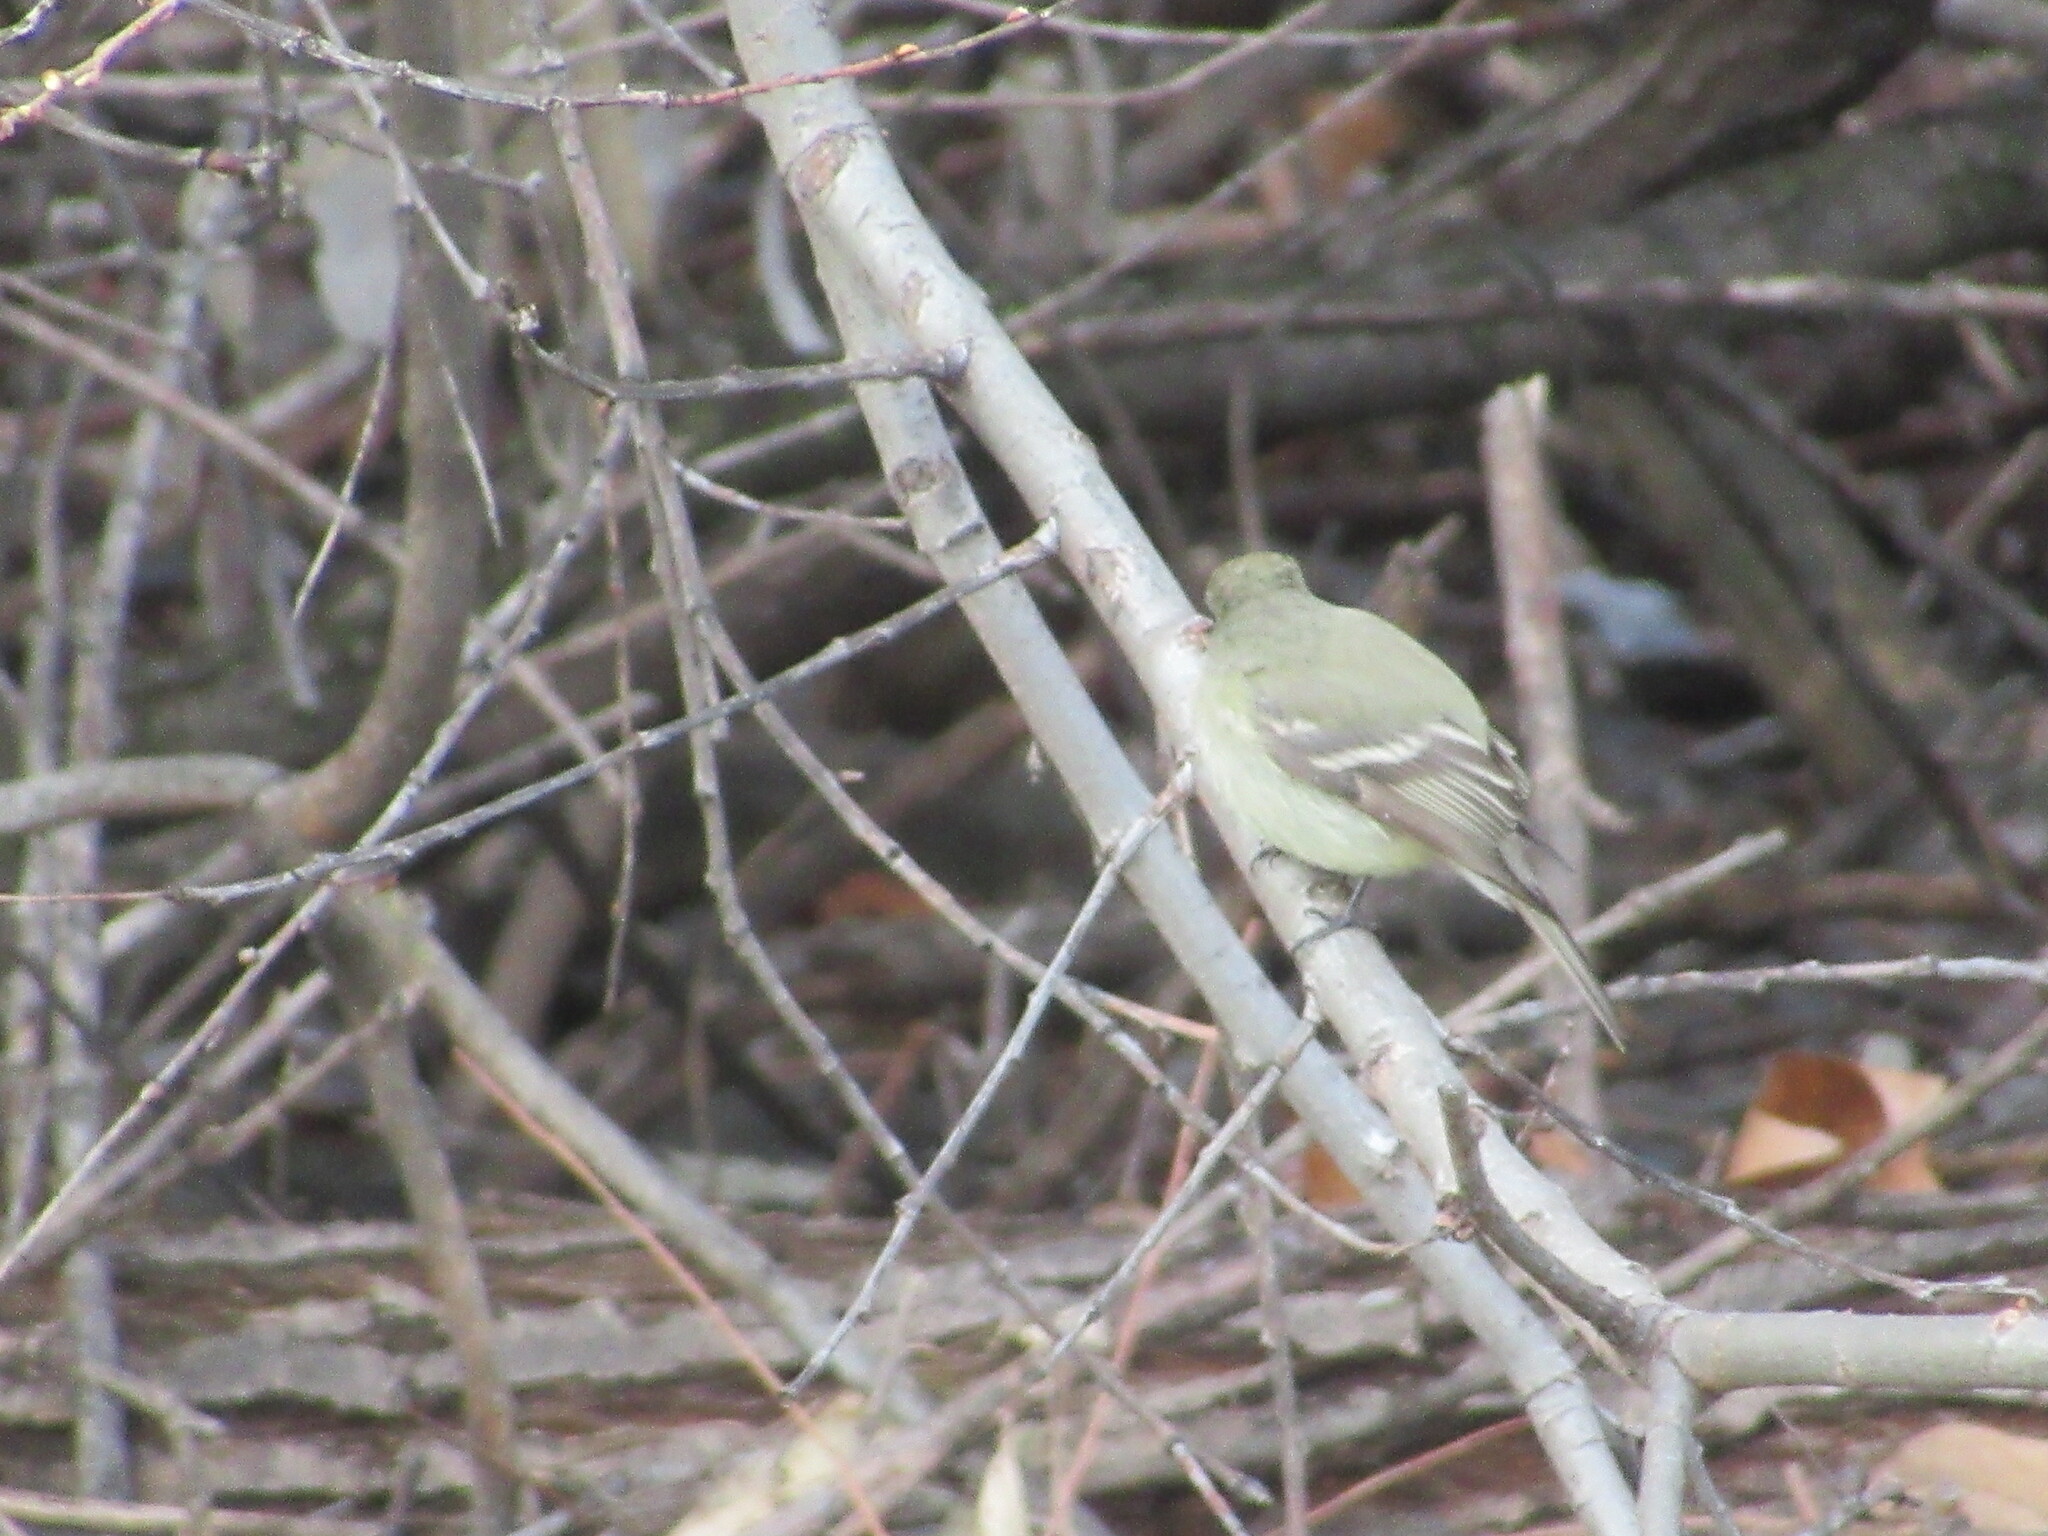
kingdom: Animalia
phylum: Chordata
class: Aves
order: Passeriformes
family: Tyrannidae
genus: Empidonax
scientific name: Empidonax hammondii
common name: Hammond's flycatcher
